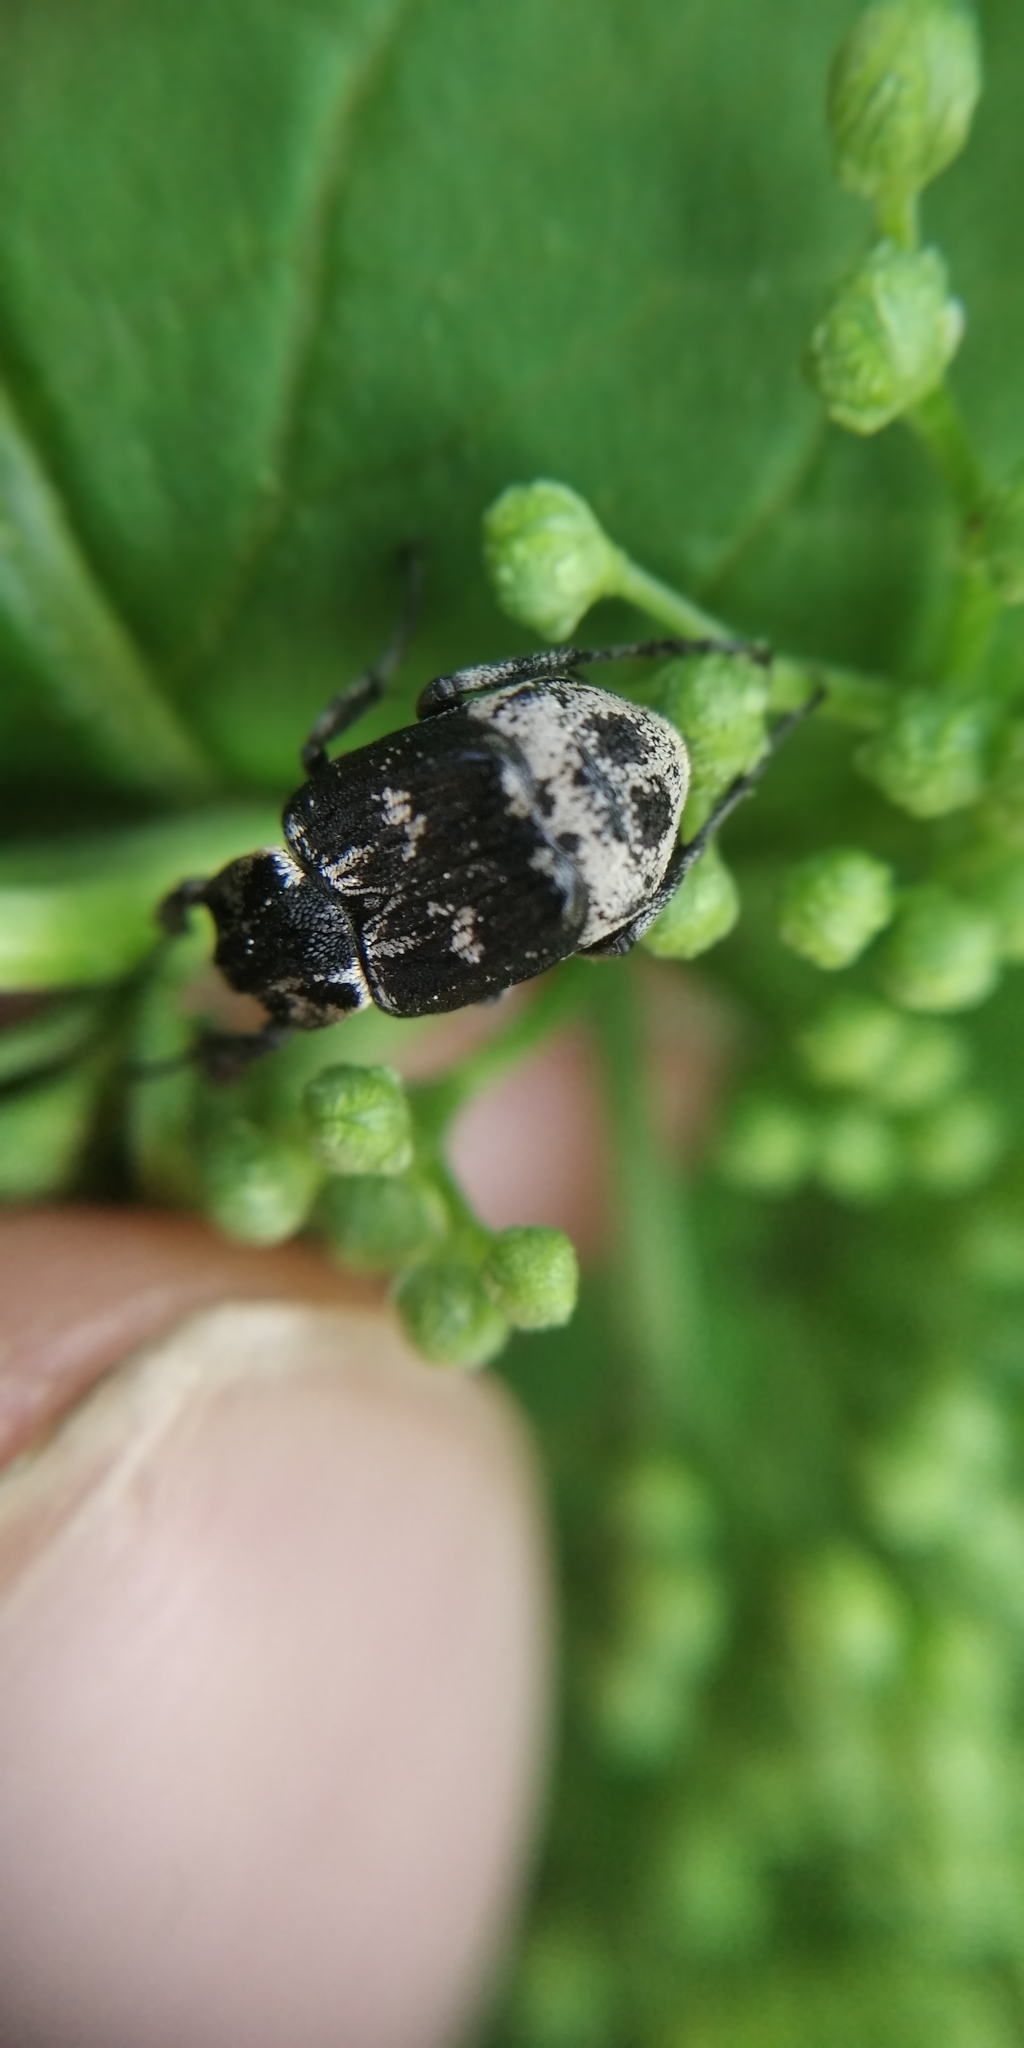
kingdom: Animalia
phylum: Arthropoda
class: Insecta
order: Coleoptera
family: Scarabaeidae
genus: Valgus
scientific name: Valgus hemipterus
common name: Bug flower chafer
